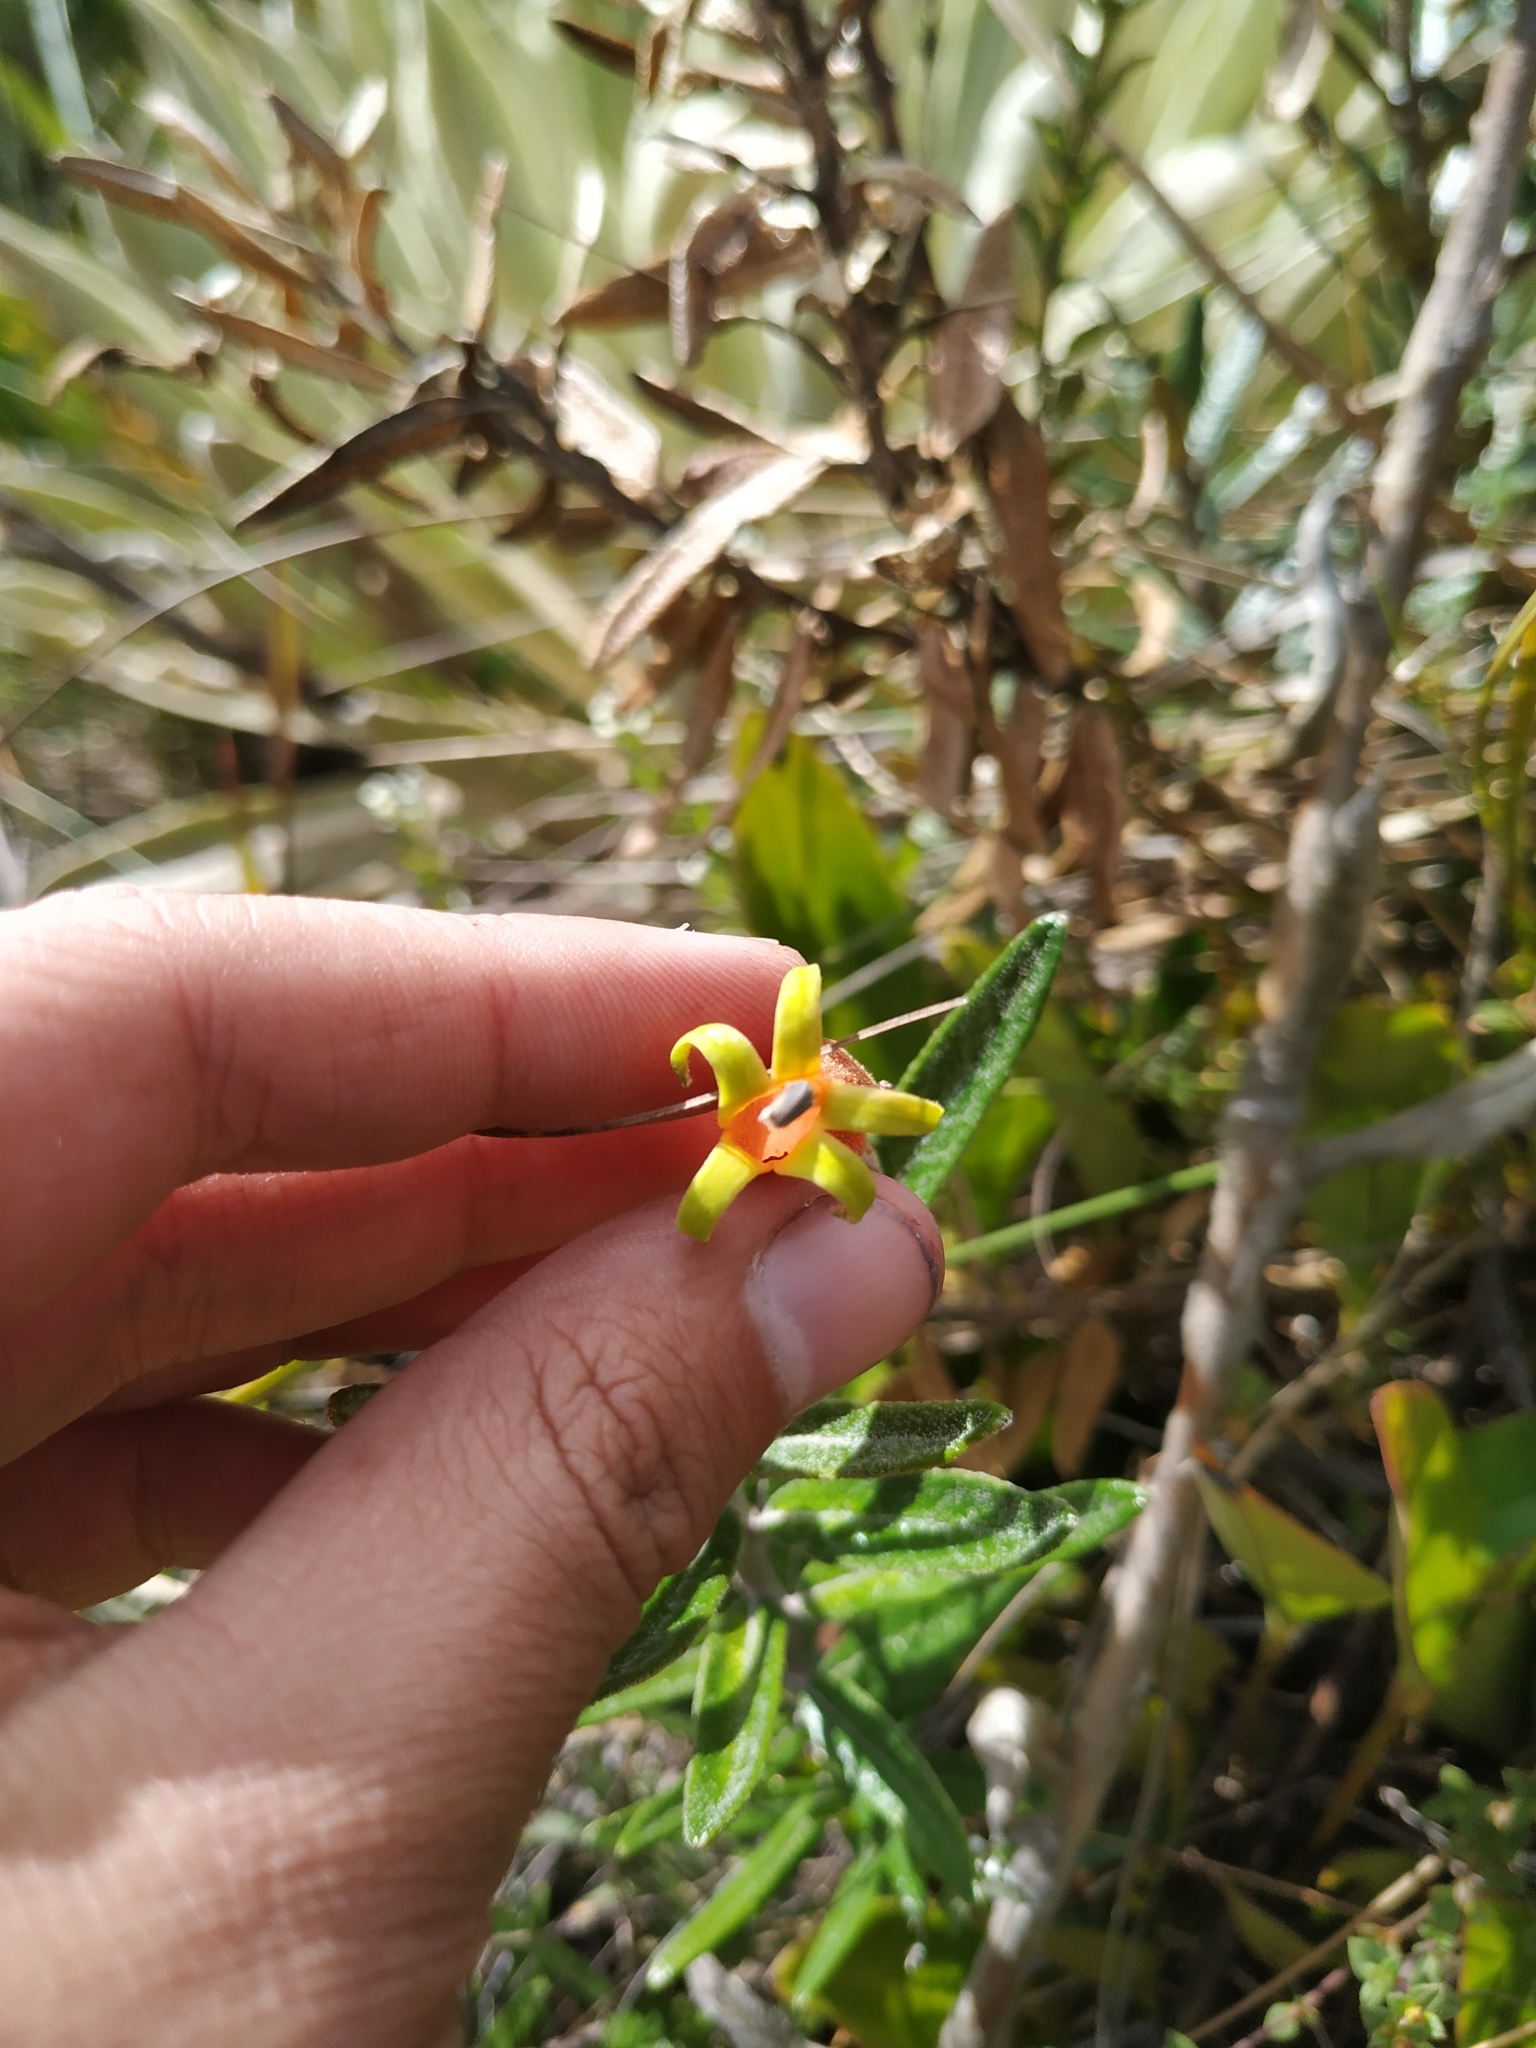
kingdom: Plantae
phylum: Tracheophyta
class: Magnoliopsida
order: Asterales
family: Campanulaceae
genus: Siphocampylus
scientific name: Siphocampylus columnae
